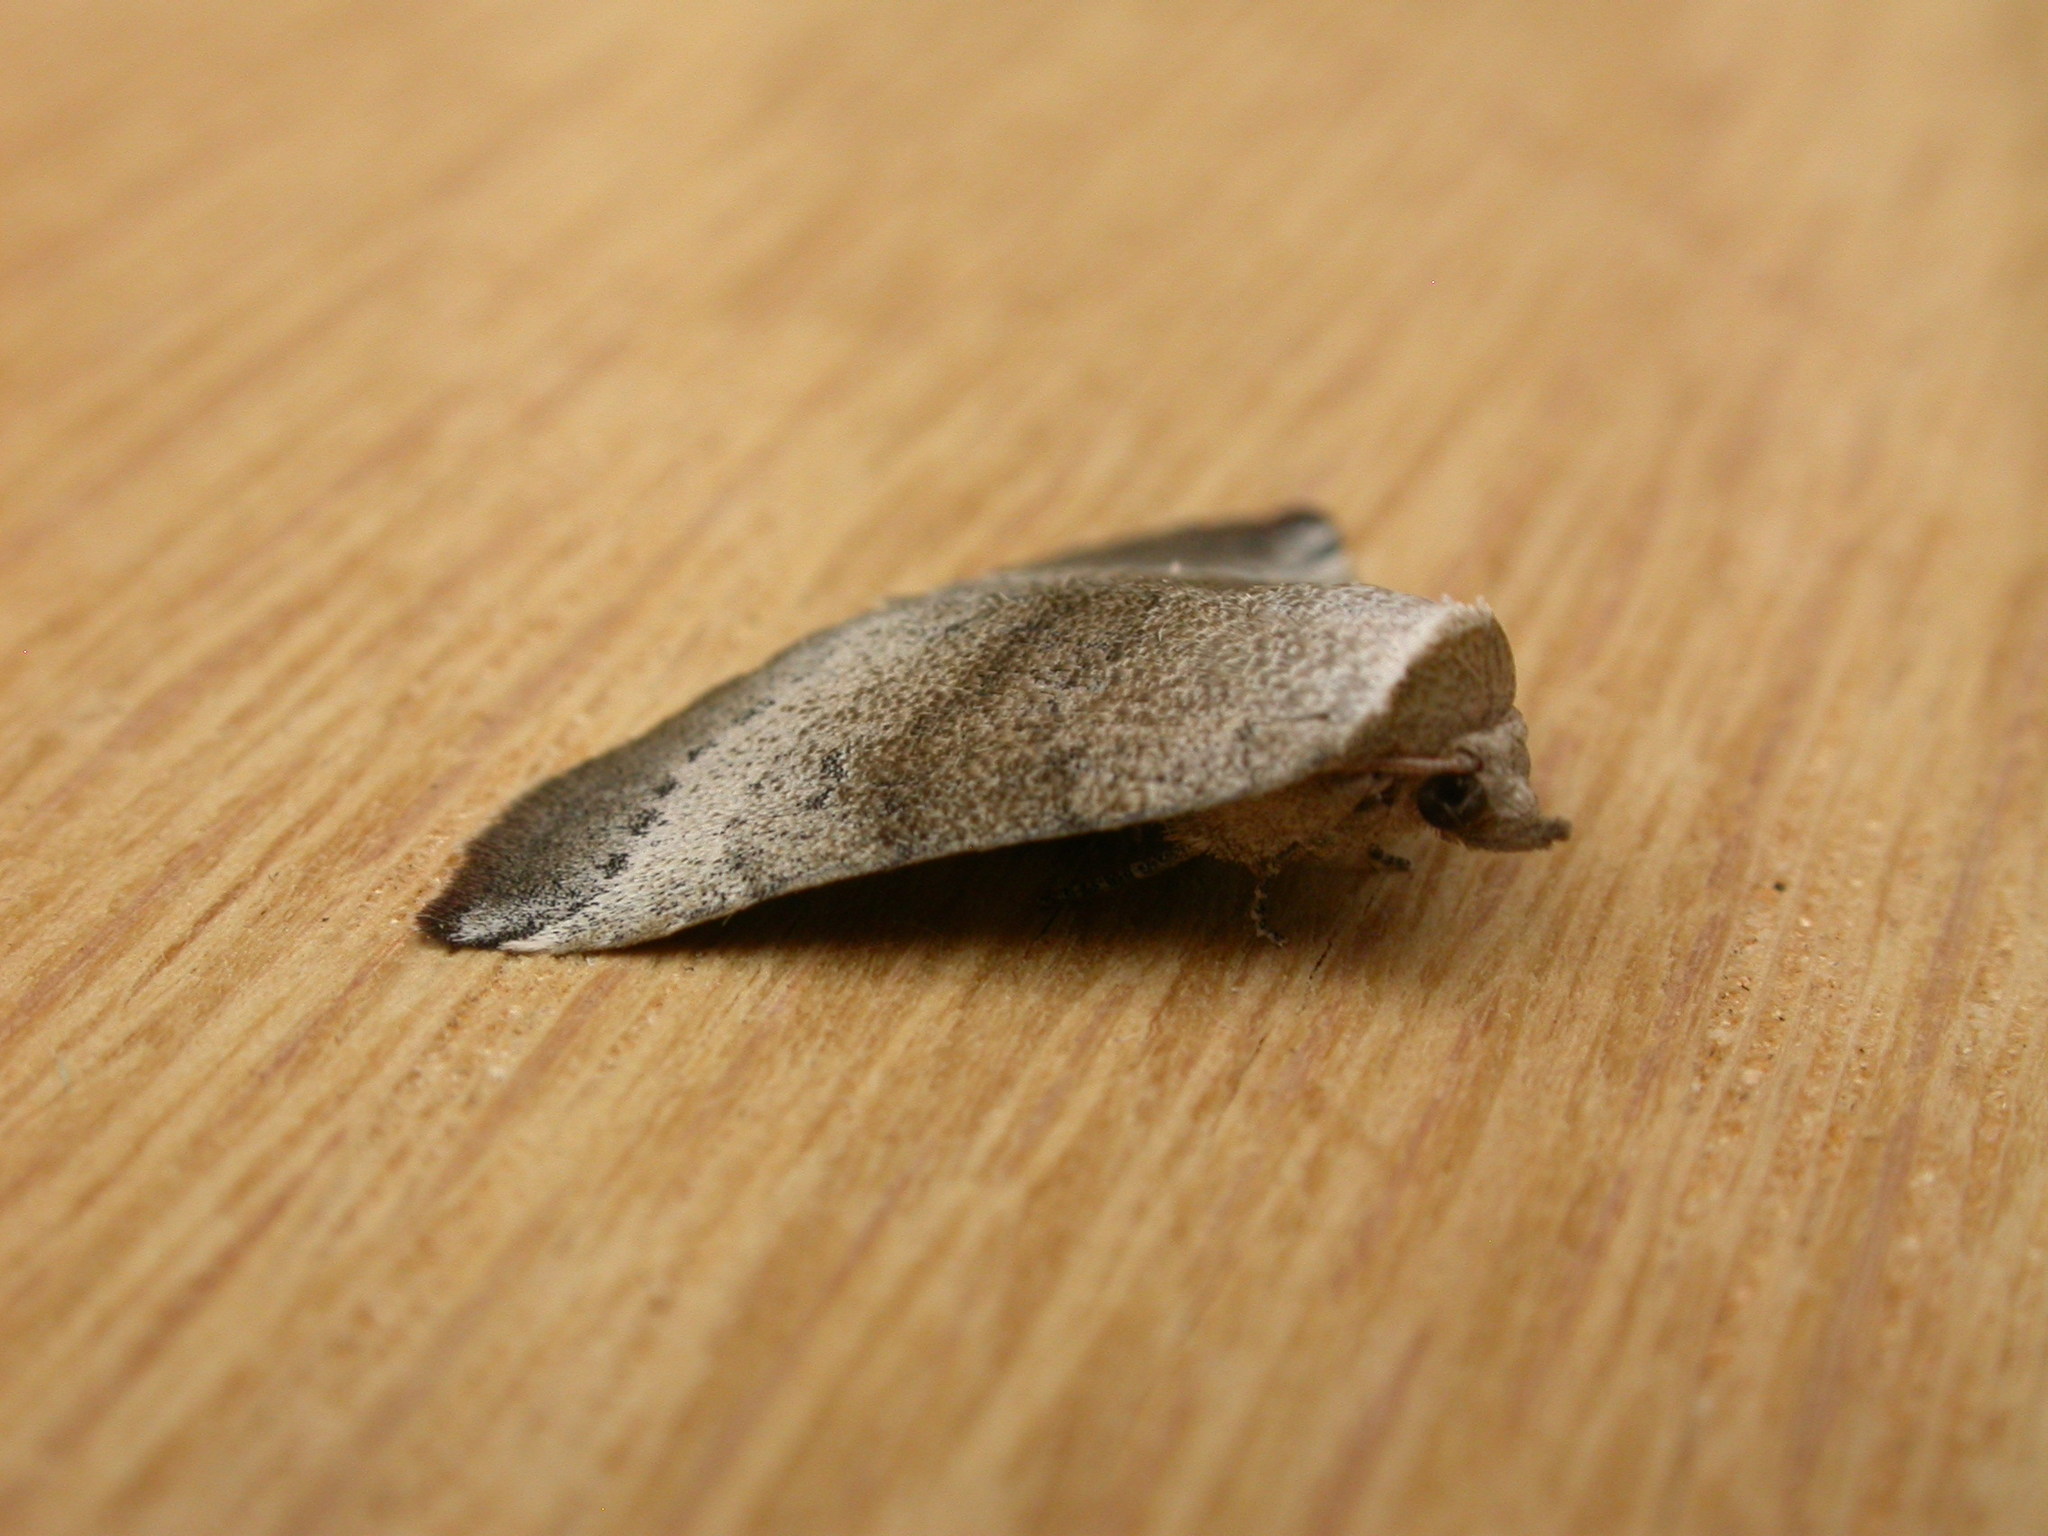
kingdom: Animalia
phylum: Arthropoda
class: Insecta
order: Lepidoptera
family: Noctuidae
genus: Mataeomera
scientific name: Mataeomera mesotaenia
